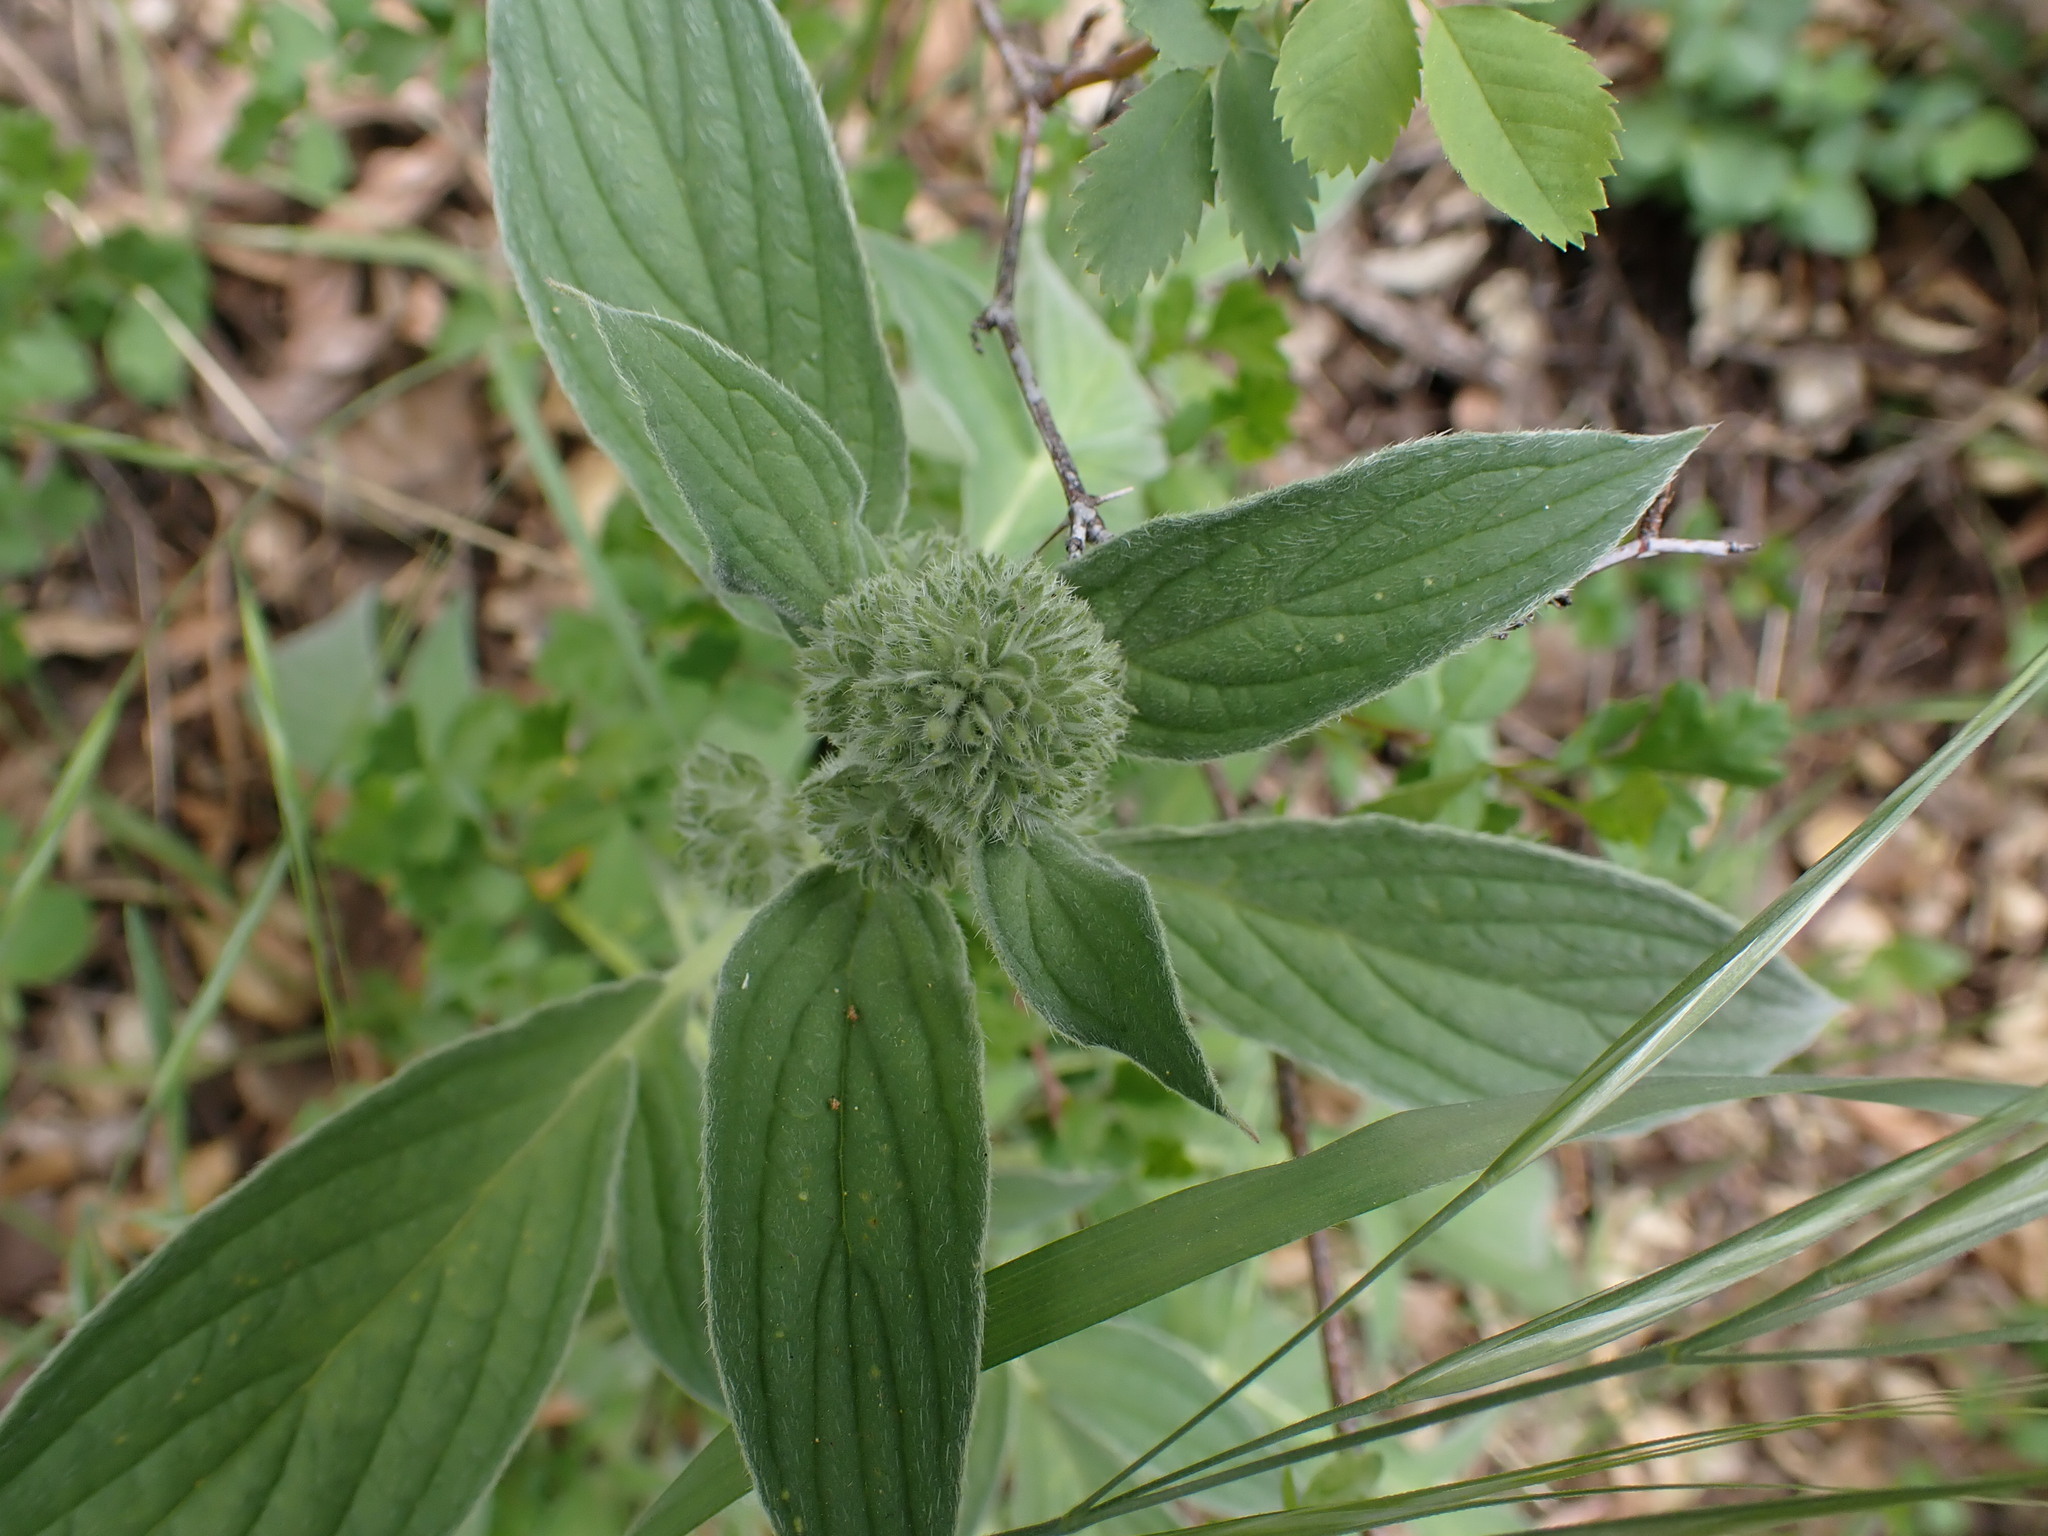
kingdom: Plantae
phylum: Tracheophyta
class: Magnoliopsida
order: Boraginales
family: Hydrophyllaceae
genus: Phacelia
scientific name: Phacelia imbricata
